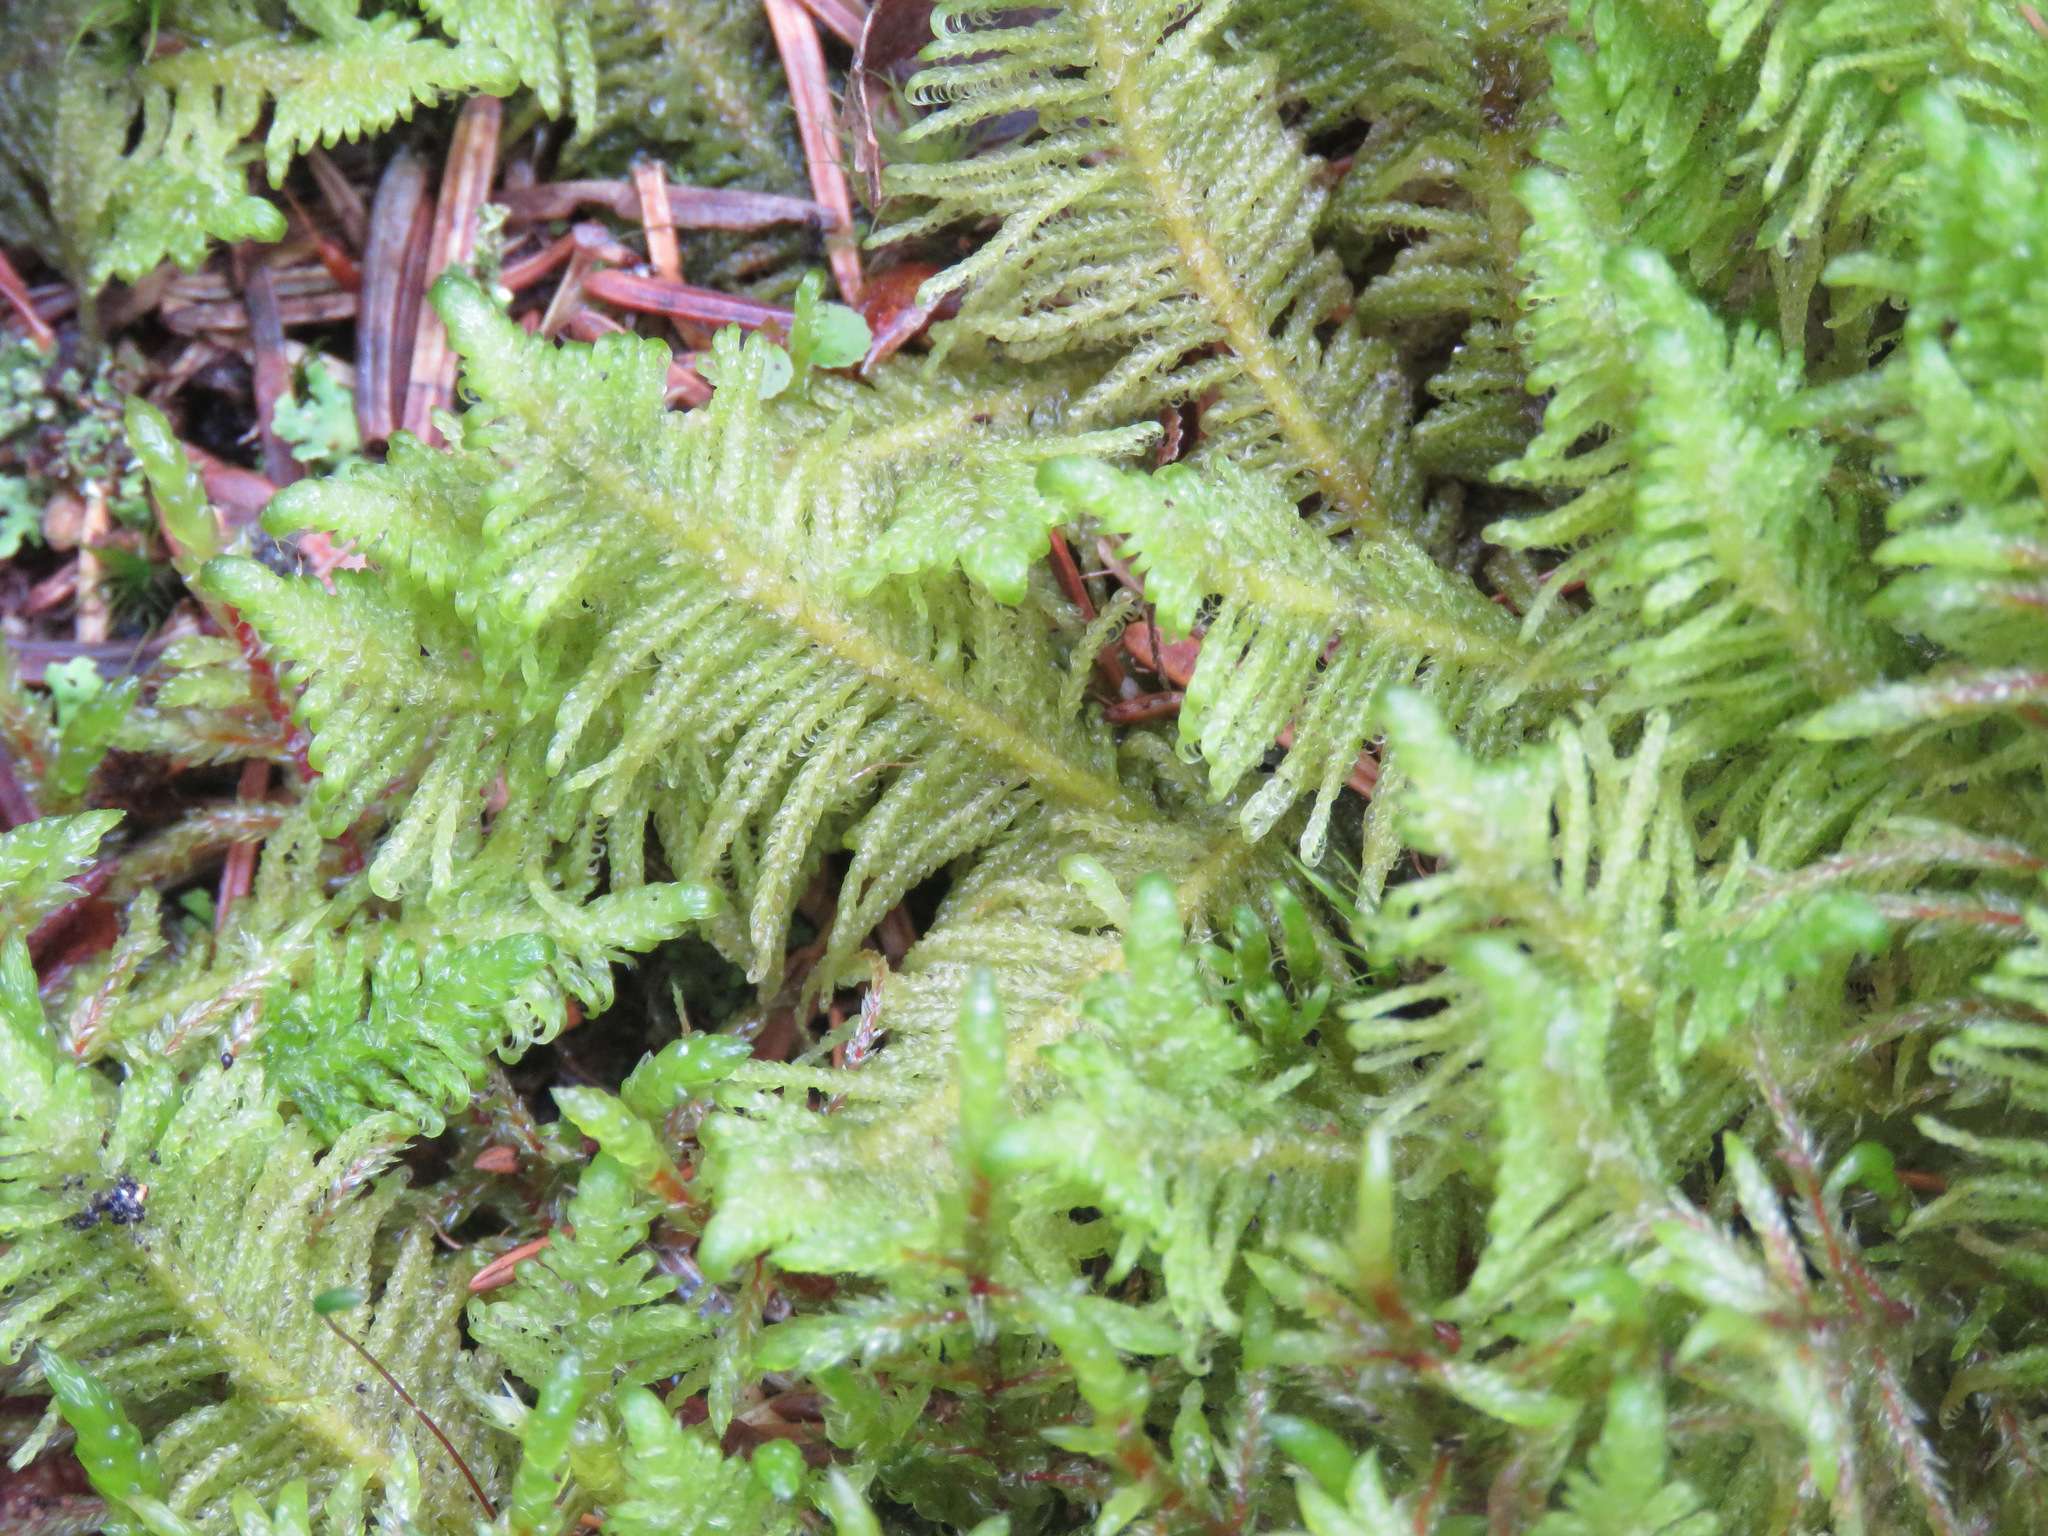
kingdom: Plantae
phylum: Bryophyta
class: Bryopsida
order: Hypnales
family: Pylaisiaceae
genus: Ptilium
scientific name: Ptilium crista-castrensis
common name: Knight's plume moss
